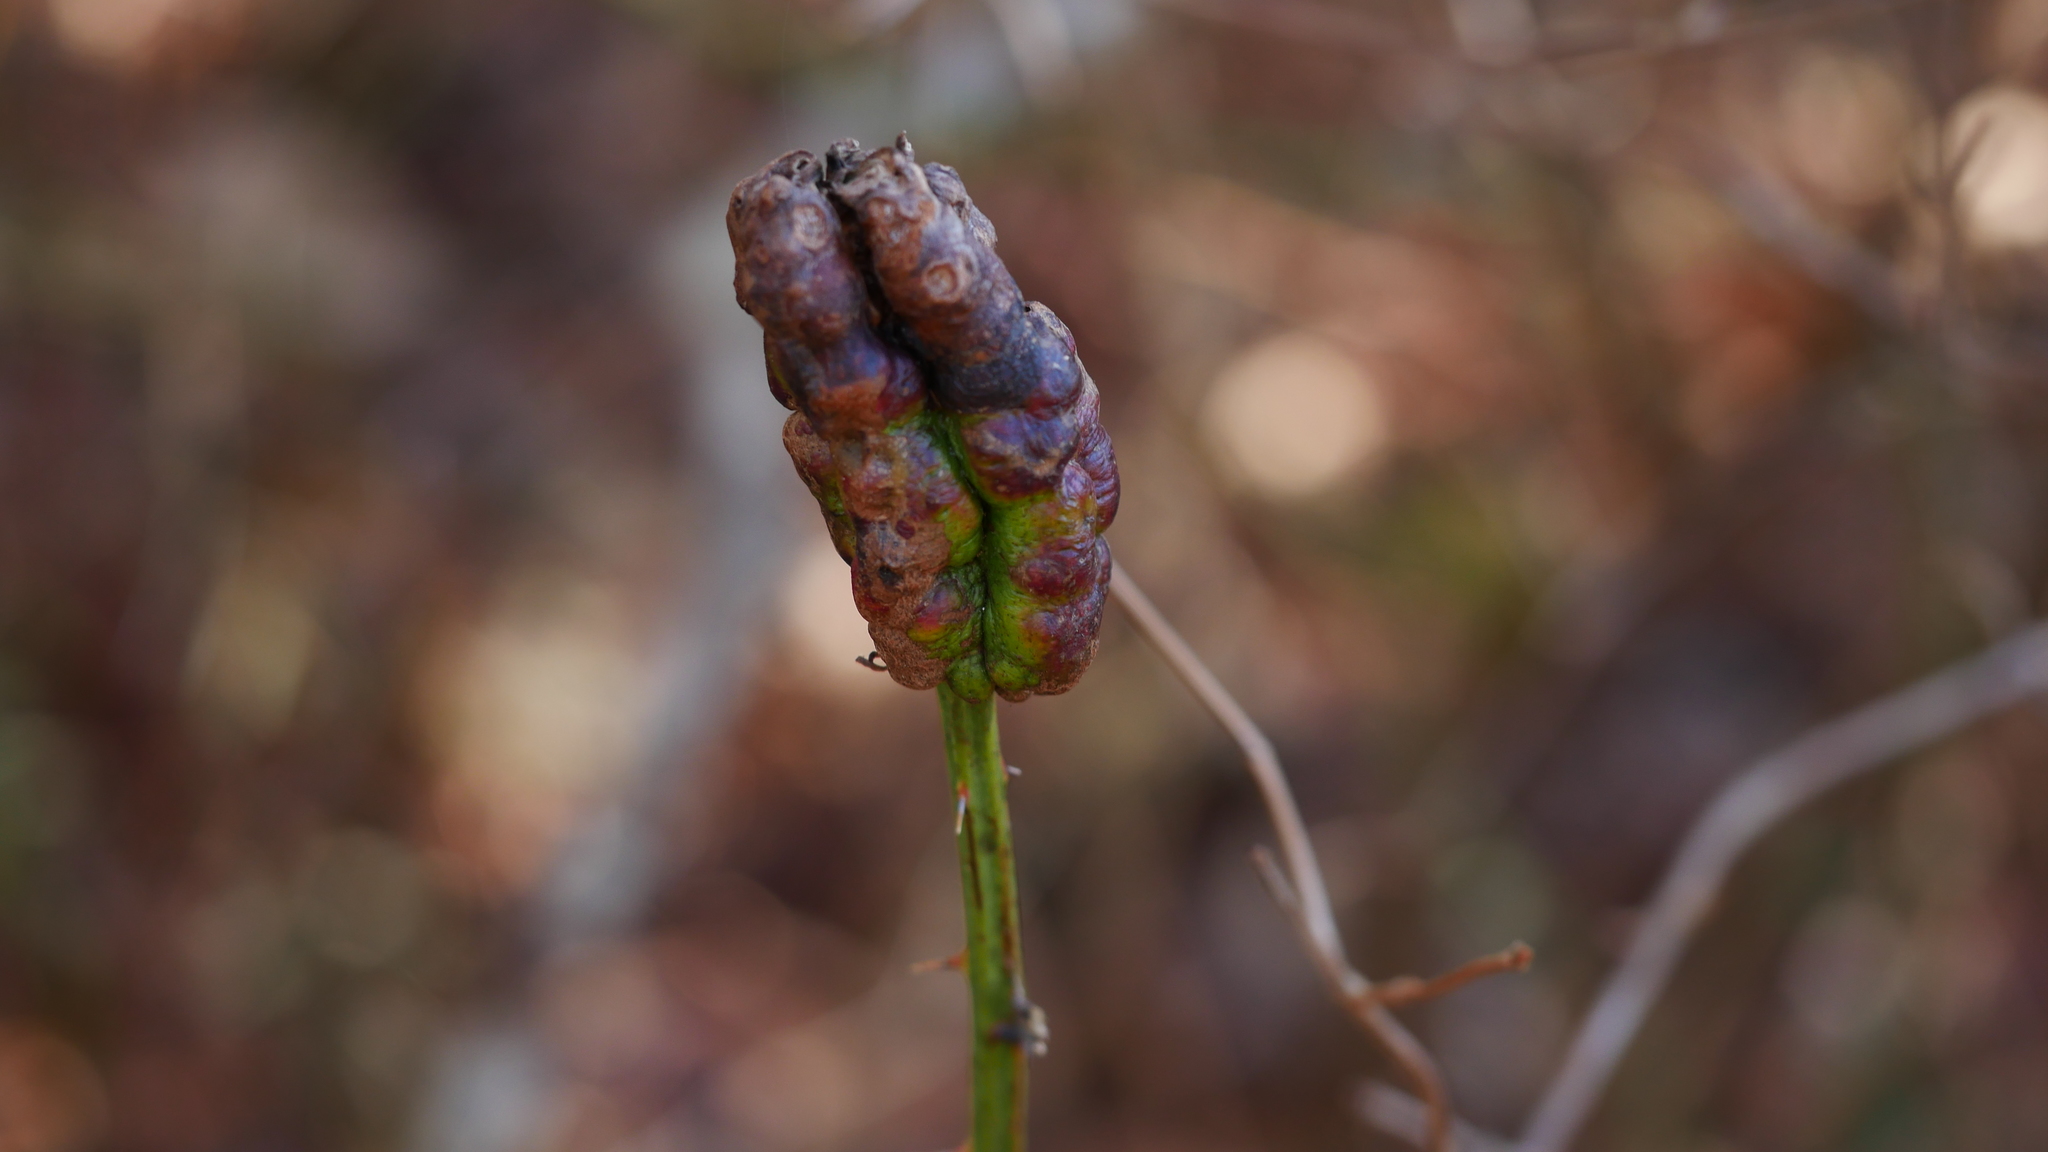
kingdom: Animalia
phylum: Arthropoda
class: Insecta
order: Hymenoptera
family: Cynipidae
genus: Diastrophus
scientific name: Diastrophus
